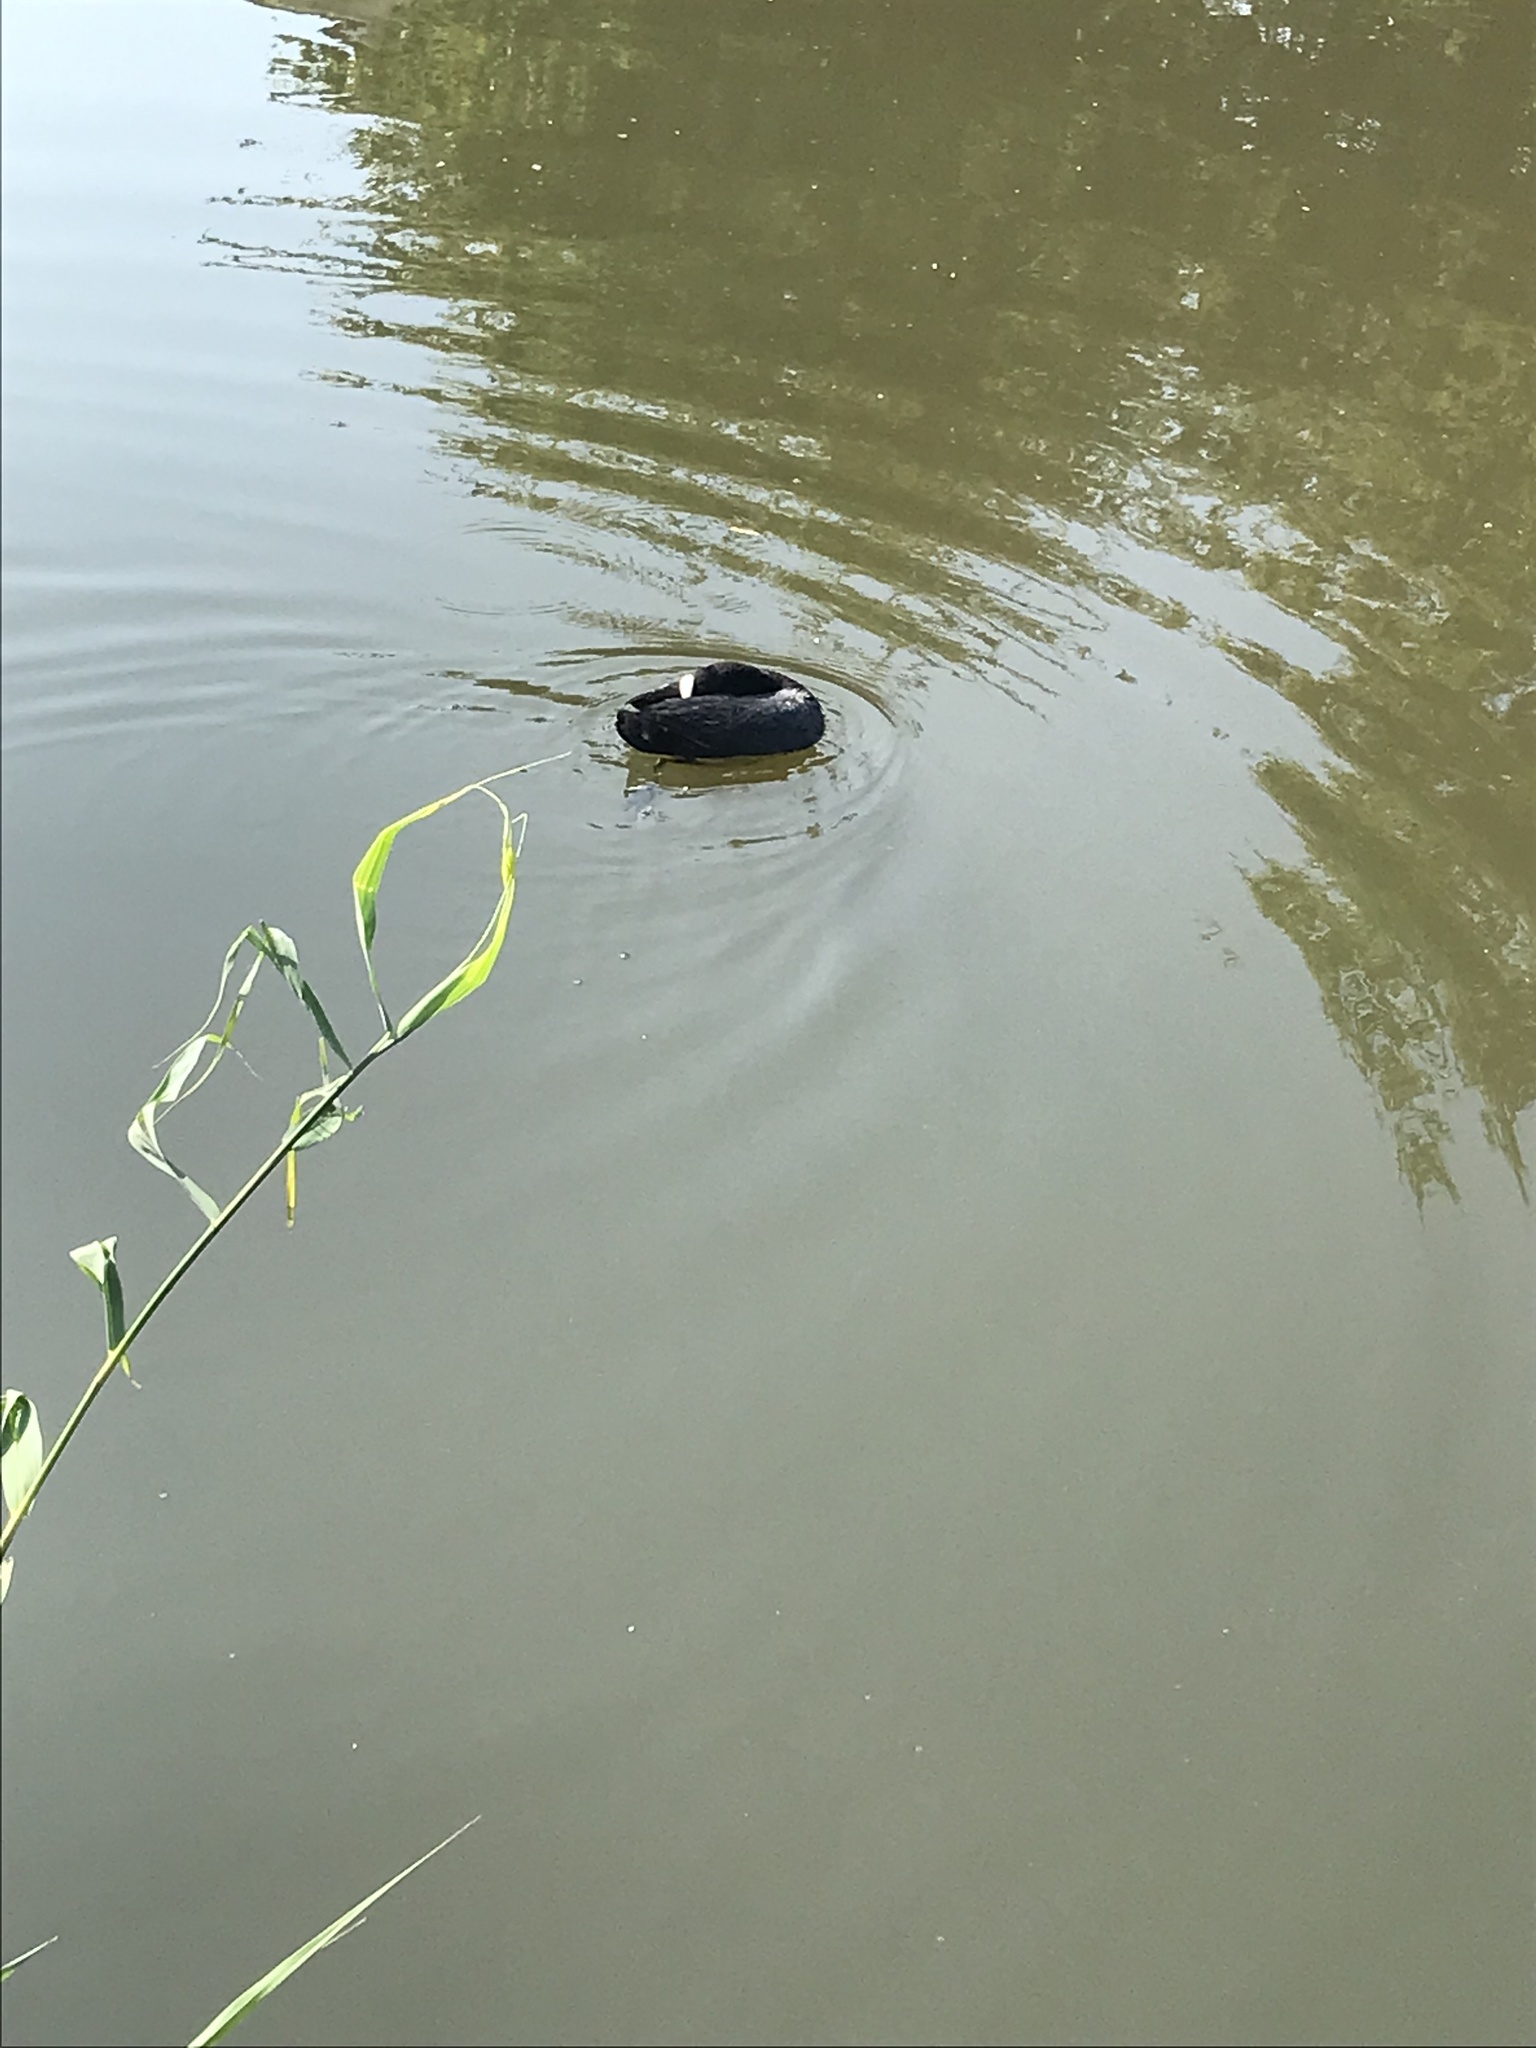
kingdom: Animalia
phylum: Chordata
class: Aves
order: Gruiformes
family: Rallidae
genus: Fulica
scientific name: Fulica atra
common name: Eurasian coot
